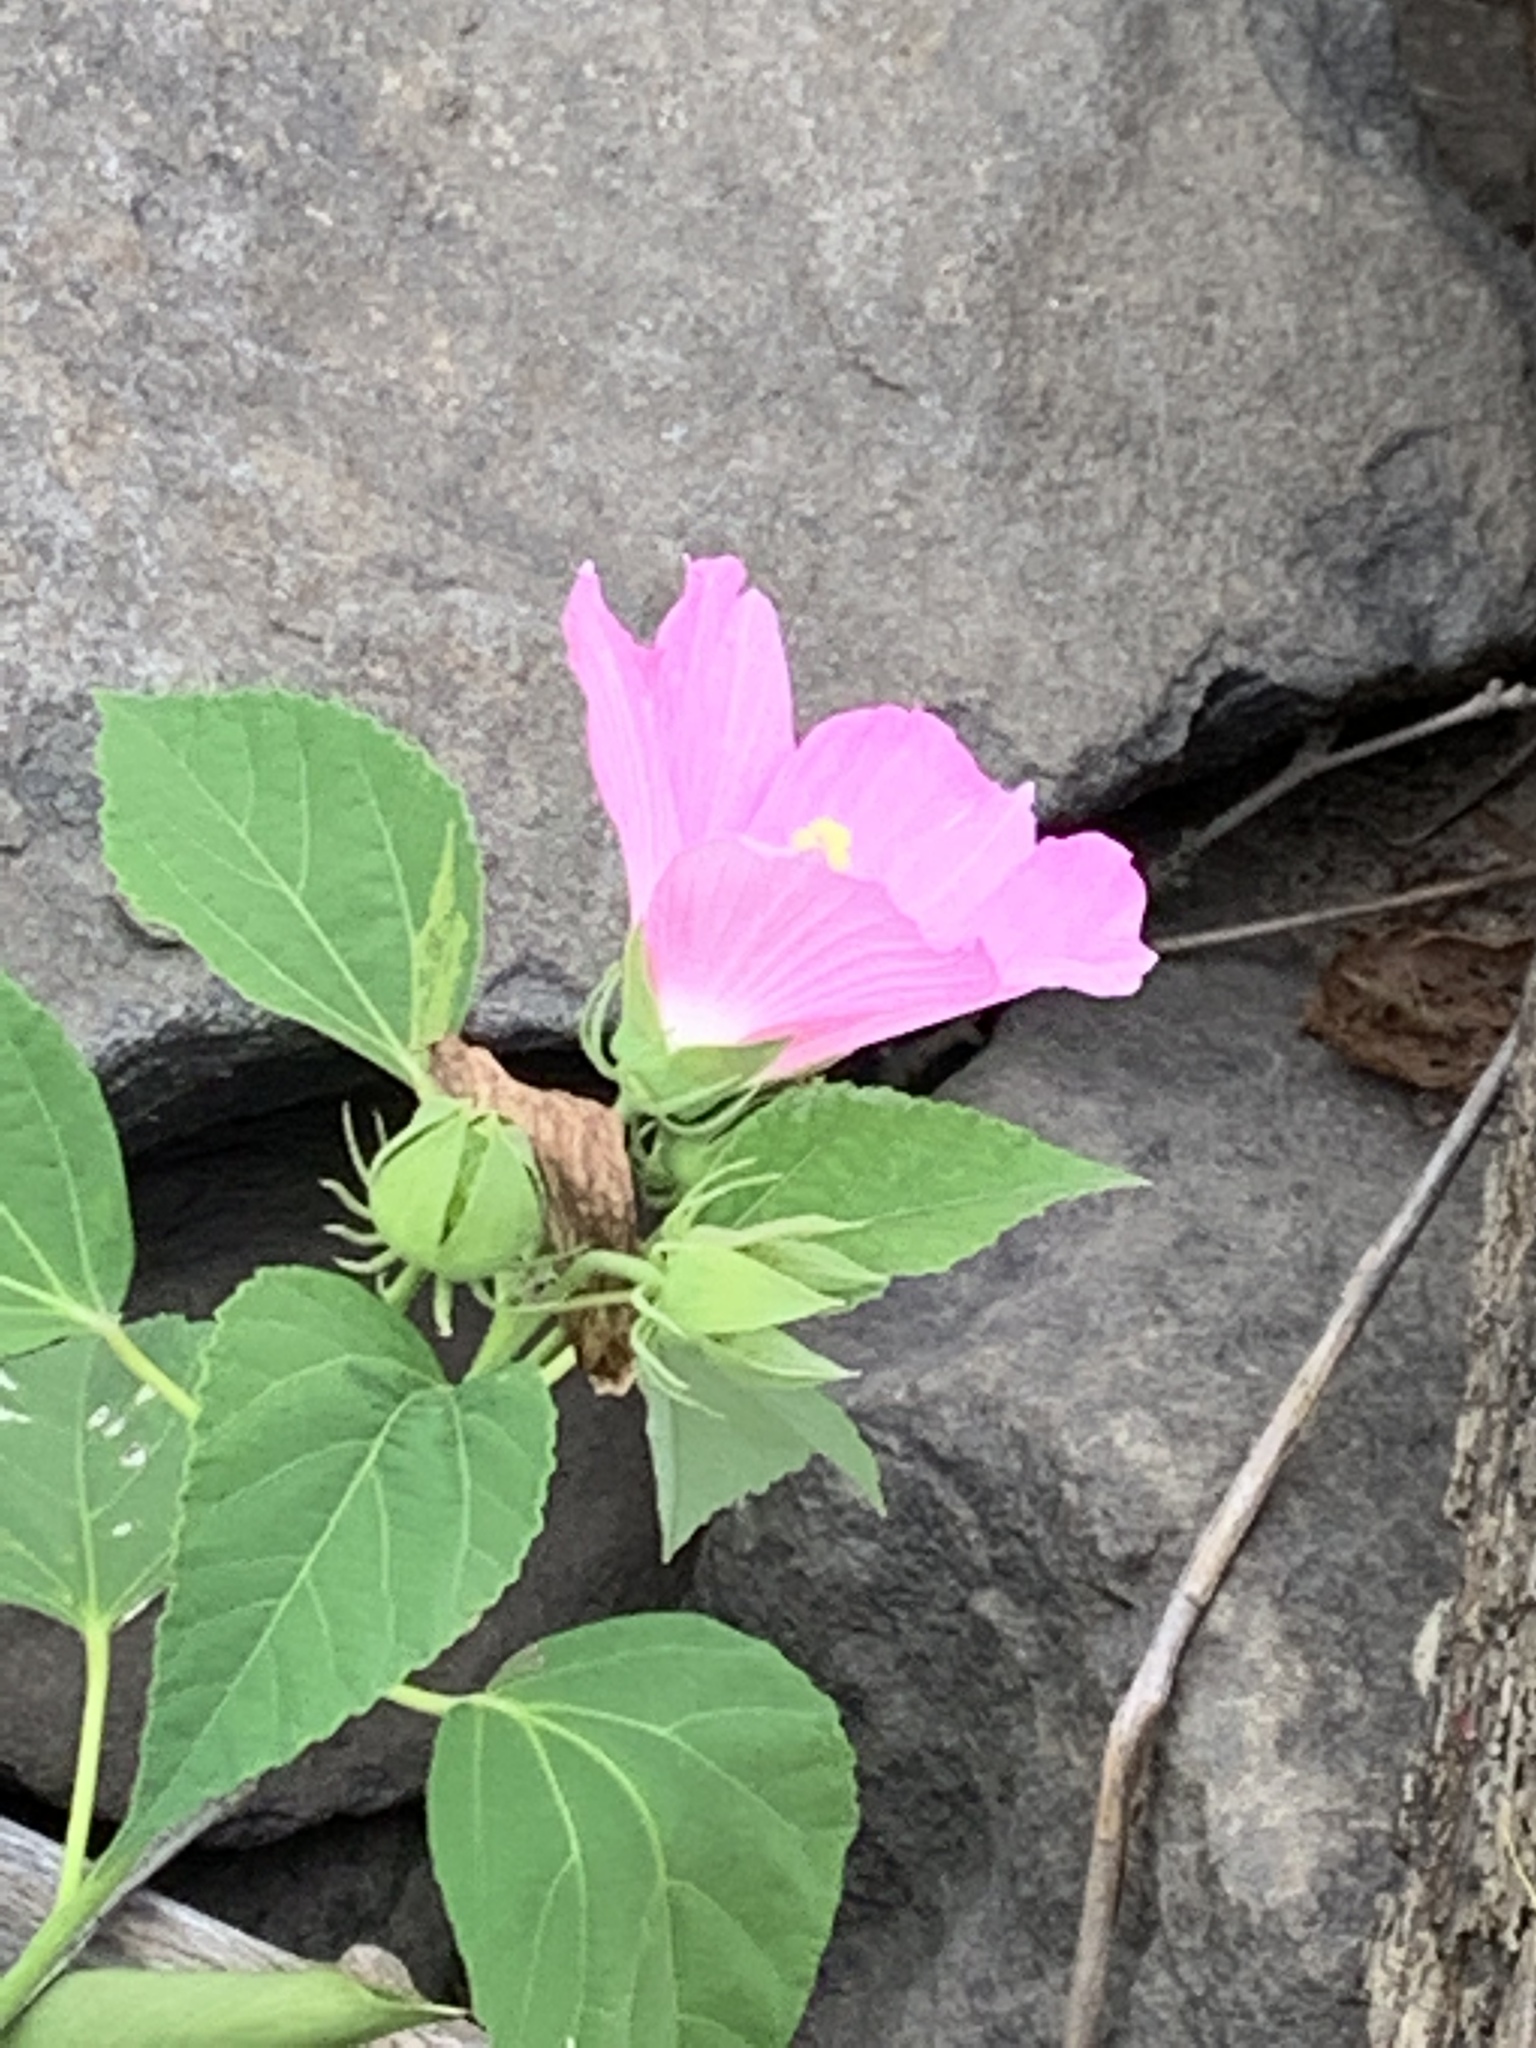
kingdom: Plantae
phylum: Tracheophyta
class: Magnoliopsida
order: Malvales
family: Malvaceae
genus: Hibiscus
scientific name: Hibiscus moscheutos
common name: Common rose-mallow
